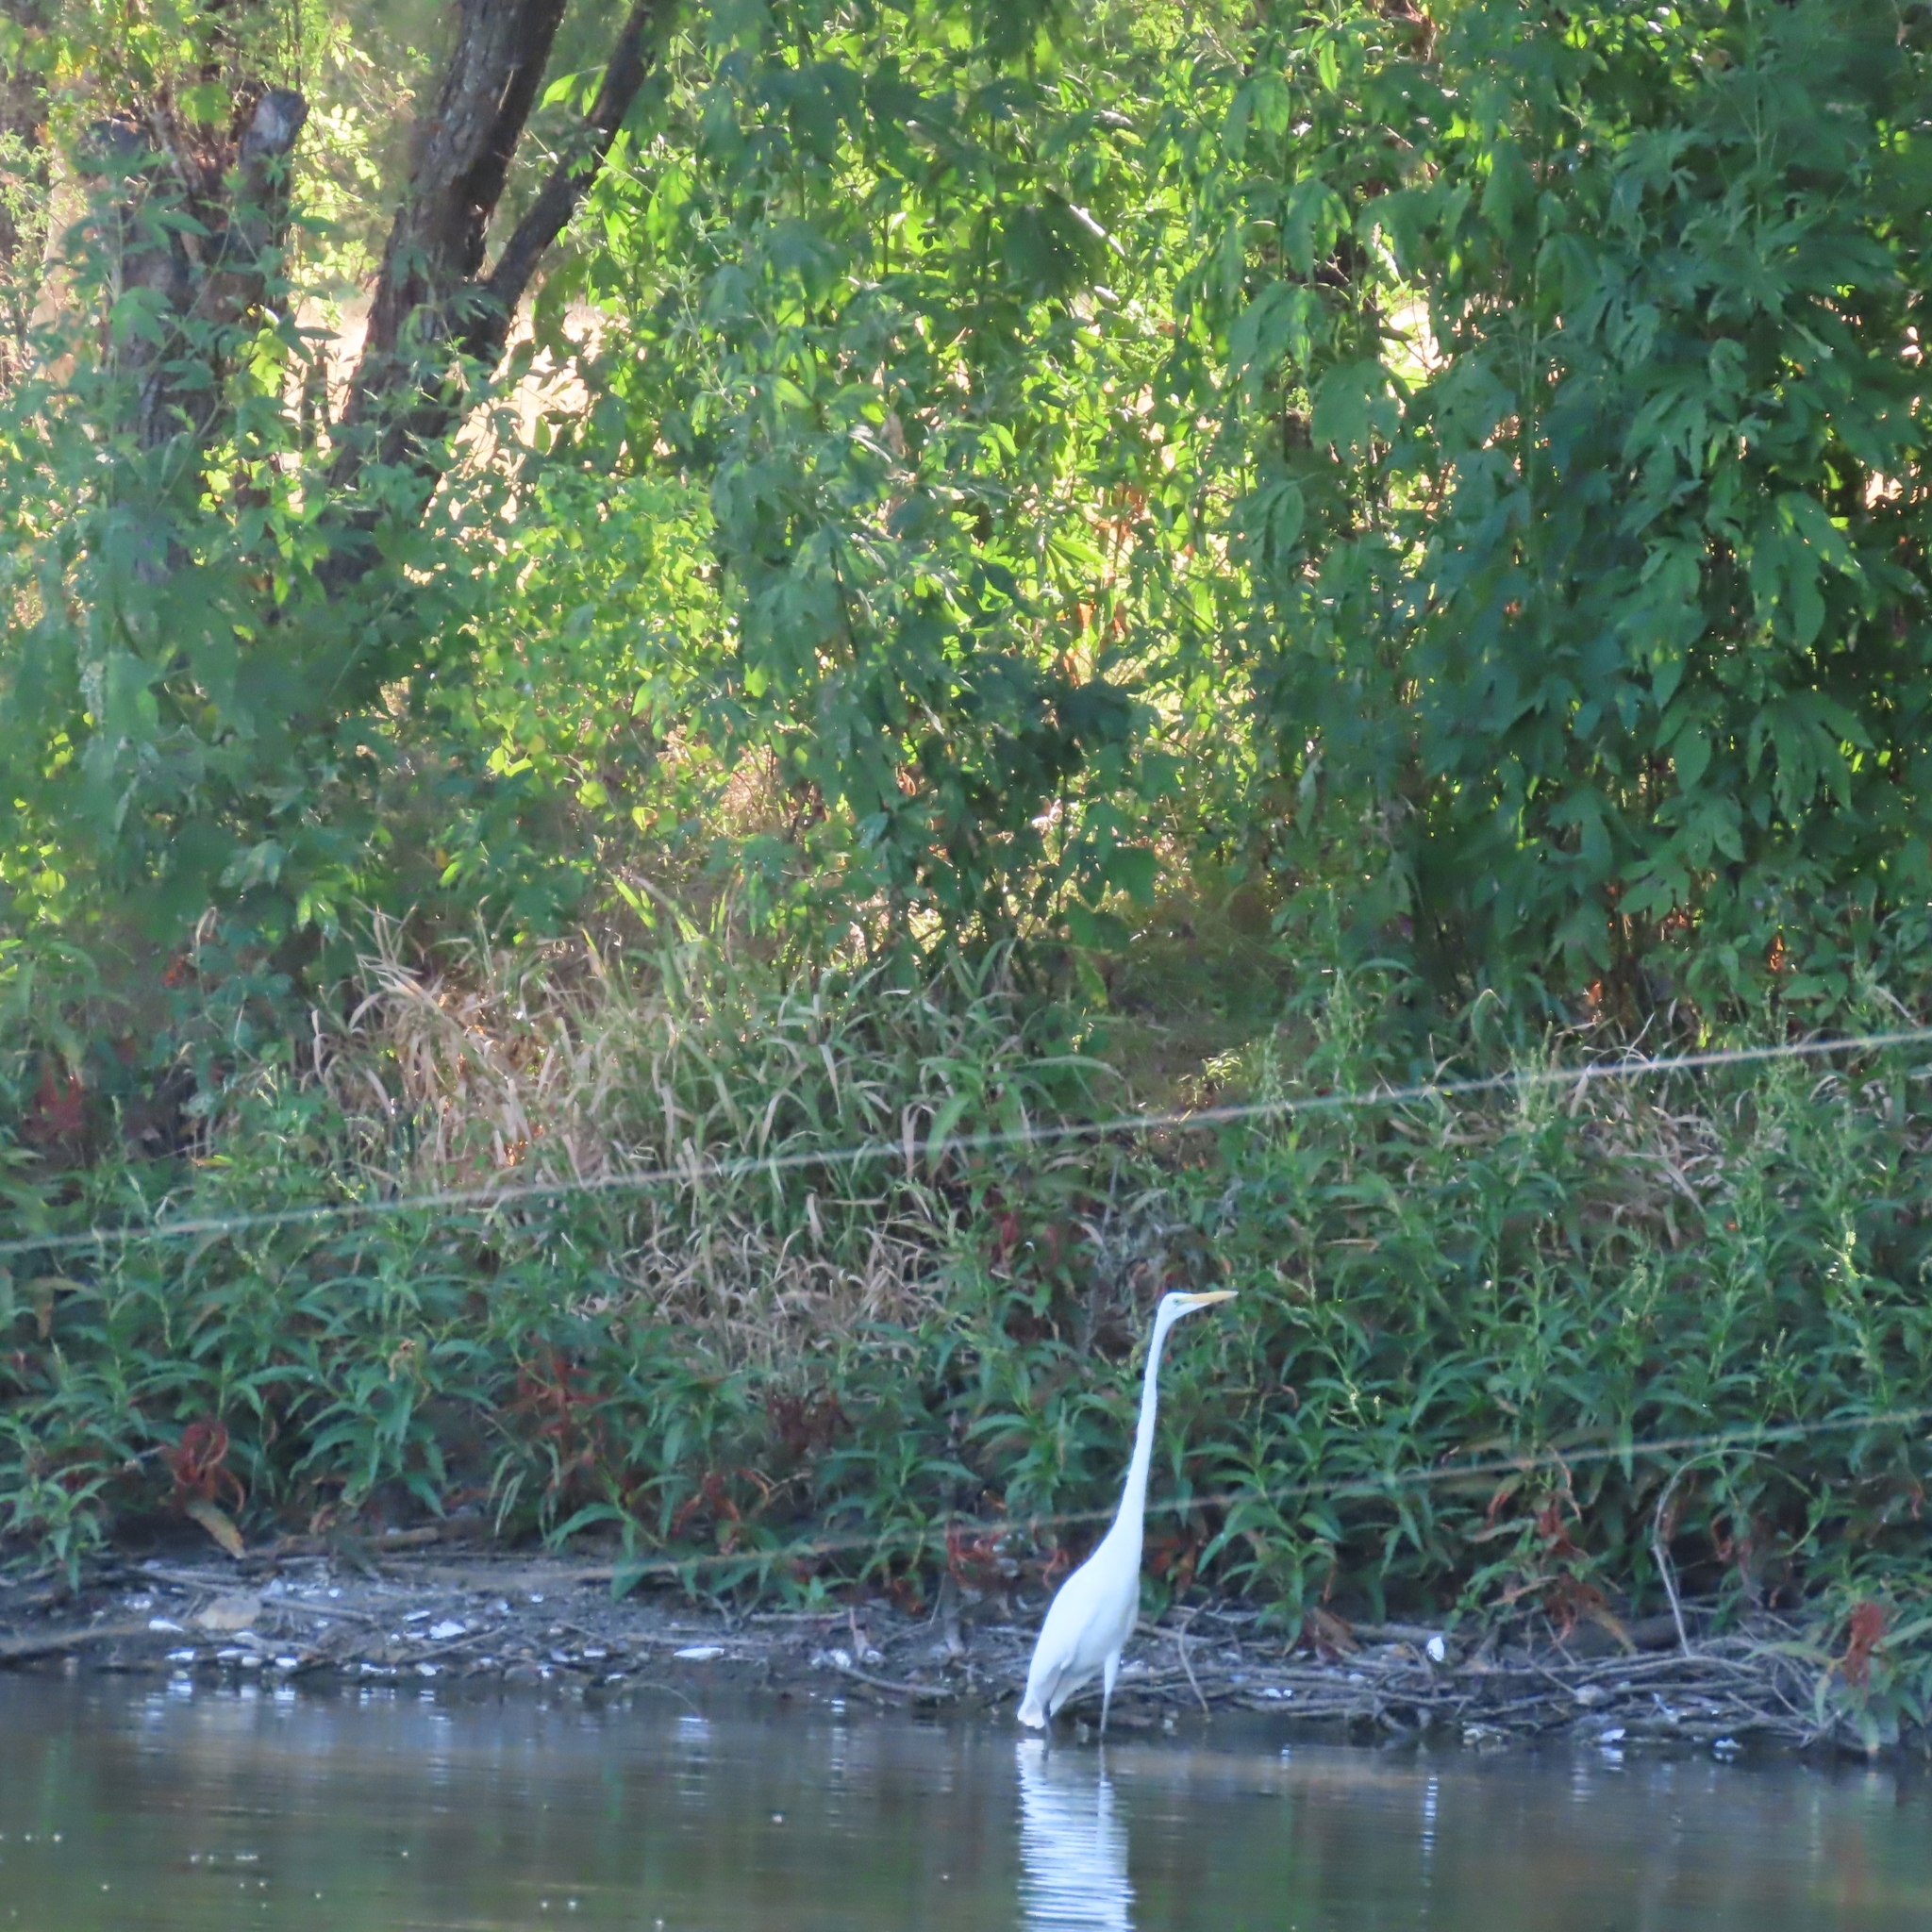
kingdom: Animalia
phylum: Chordata
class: Aves
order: Pelecaniformes
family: Ardeidae
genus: Ardea
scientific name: Ardea alba
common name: Great egret
